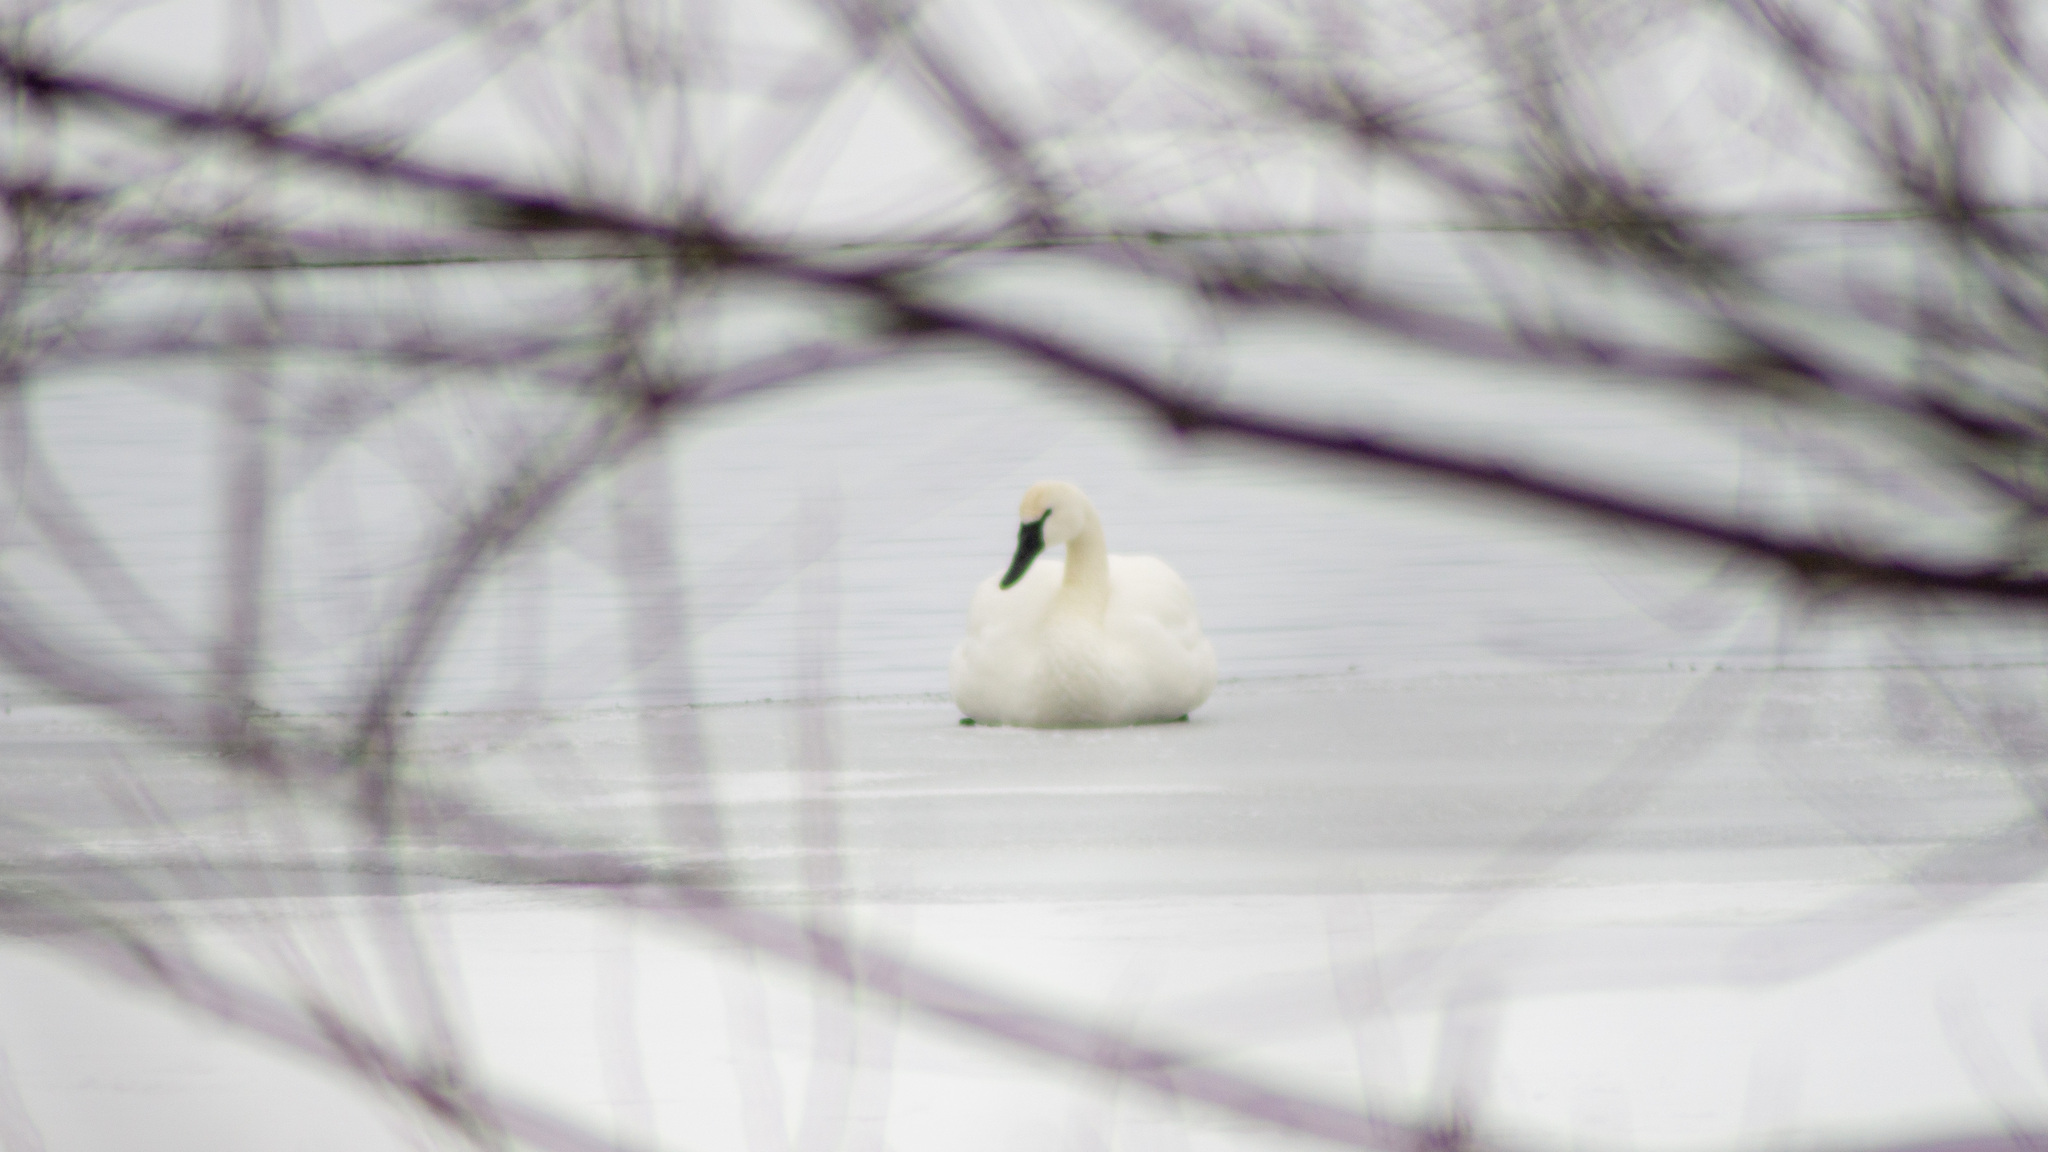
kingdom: Animalia
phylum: Chordata
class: Aves
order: Anseriformes
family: Anatidae
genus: Cygnus
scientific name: Cygnus columbianus
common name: Tundra swan
